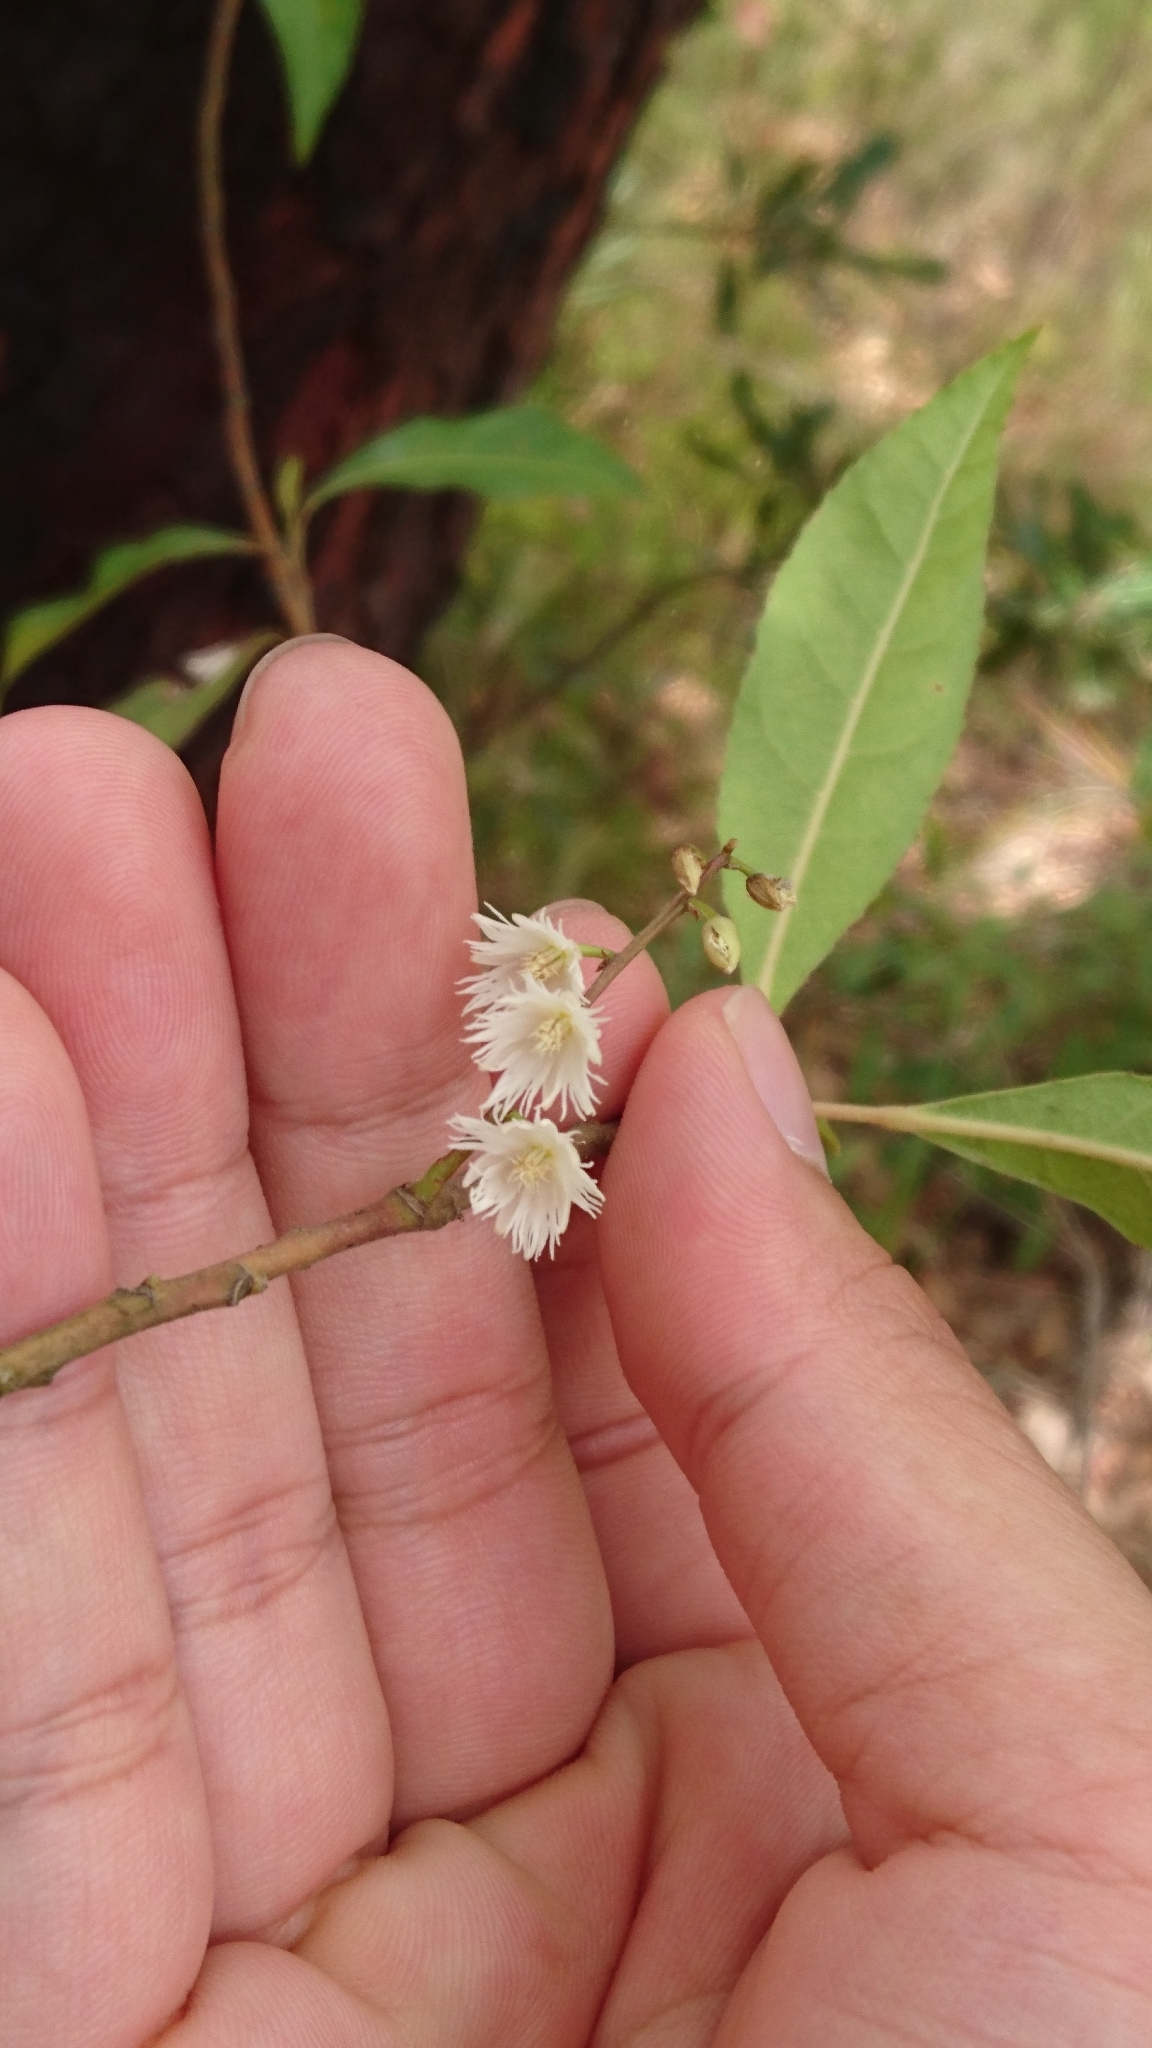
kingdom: Plantae
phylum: Tracheophyta
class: Magnoliopsida
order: Oxalidales
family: Elaeocarpaceae
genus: Elaeocarpus
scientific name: Elaeocarpus reticulatus
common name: Ash quandong
